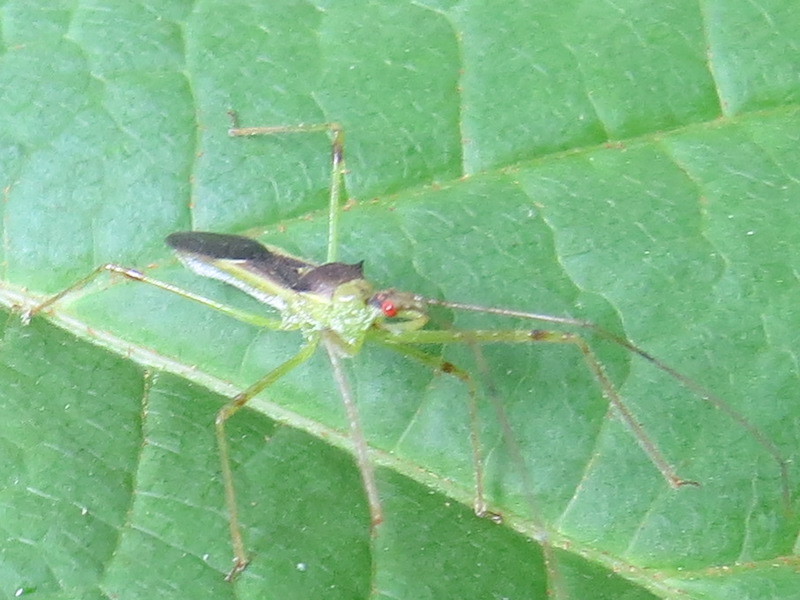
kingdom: Animalia
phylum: Arthropoda
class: Insecta
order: Hemiptera
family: Reduviidae
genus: Zelus
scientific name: Zelus luridus
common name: Pale green assassin bug
